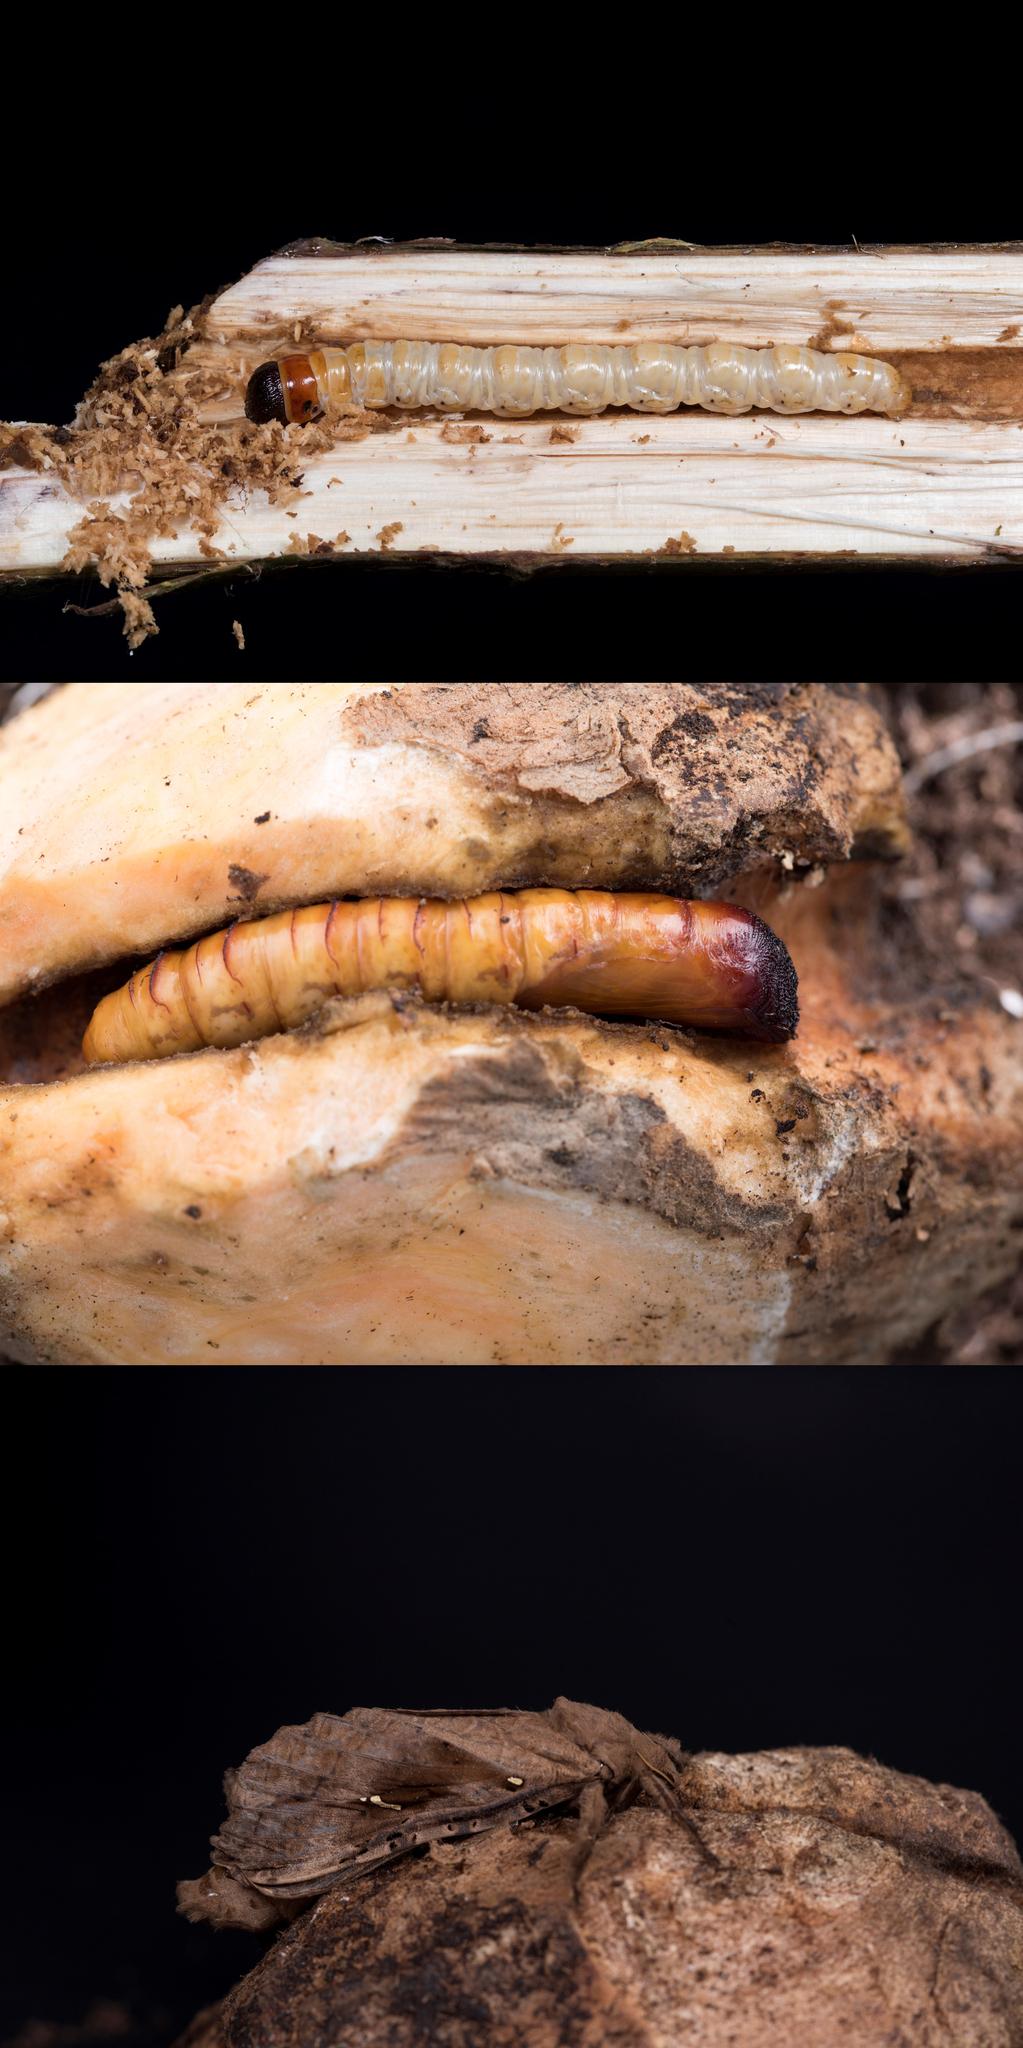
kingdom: Animalia
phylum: Arthropoda
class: Insecta
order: Lepidoptera
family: Hepialidae
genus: Endoclita
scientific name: Endoclita sinensis
